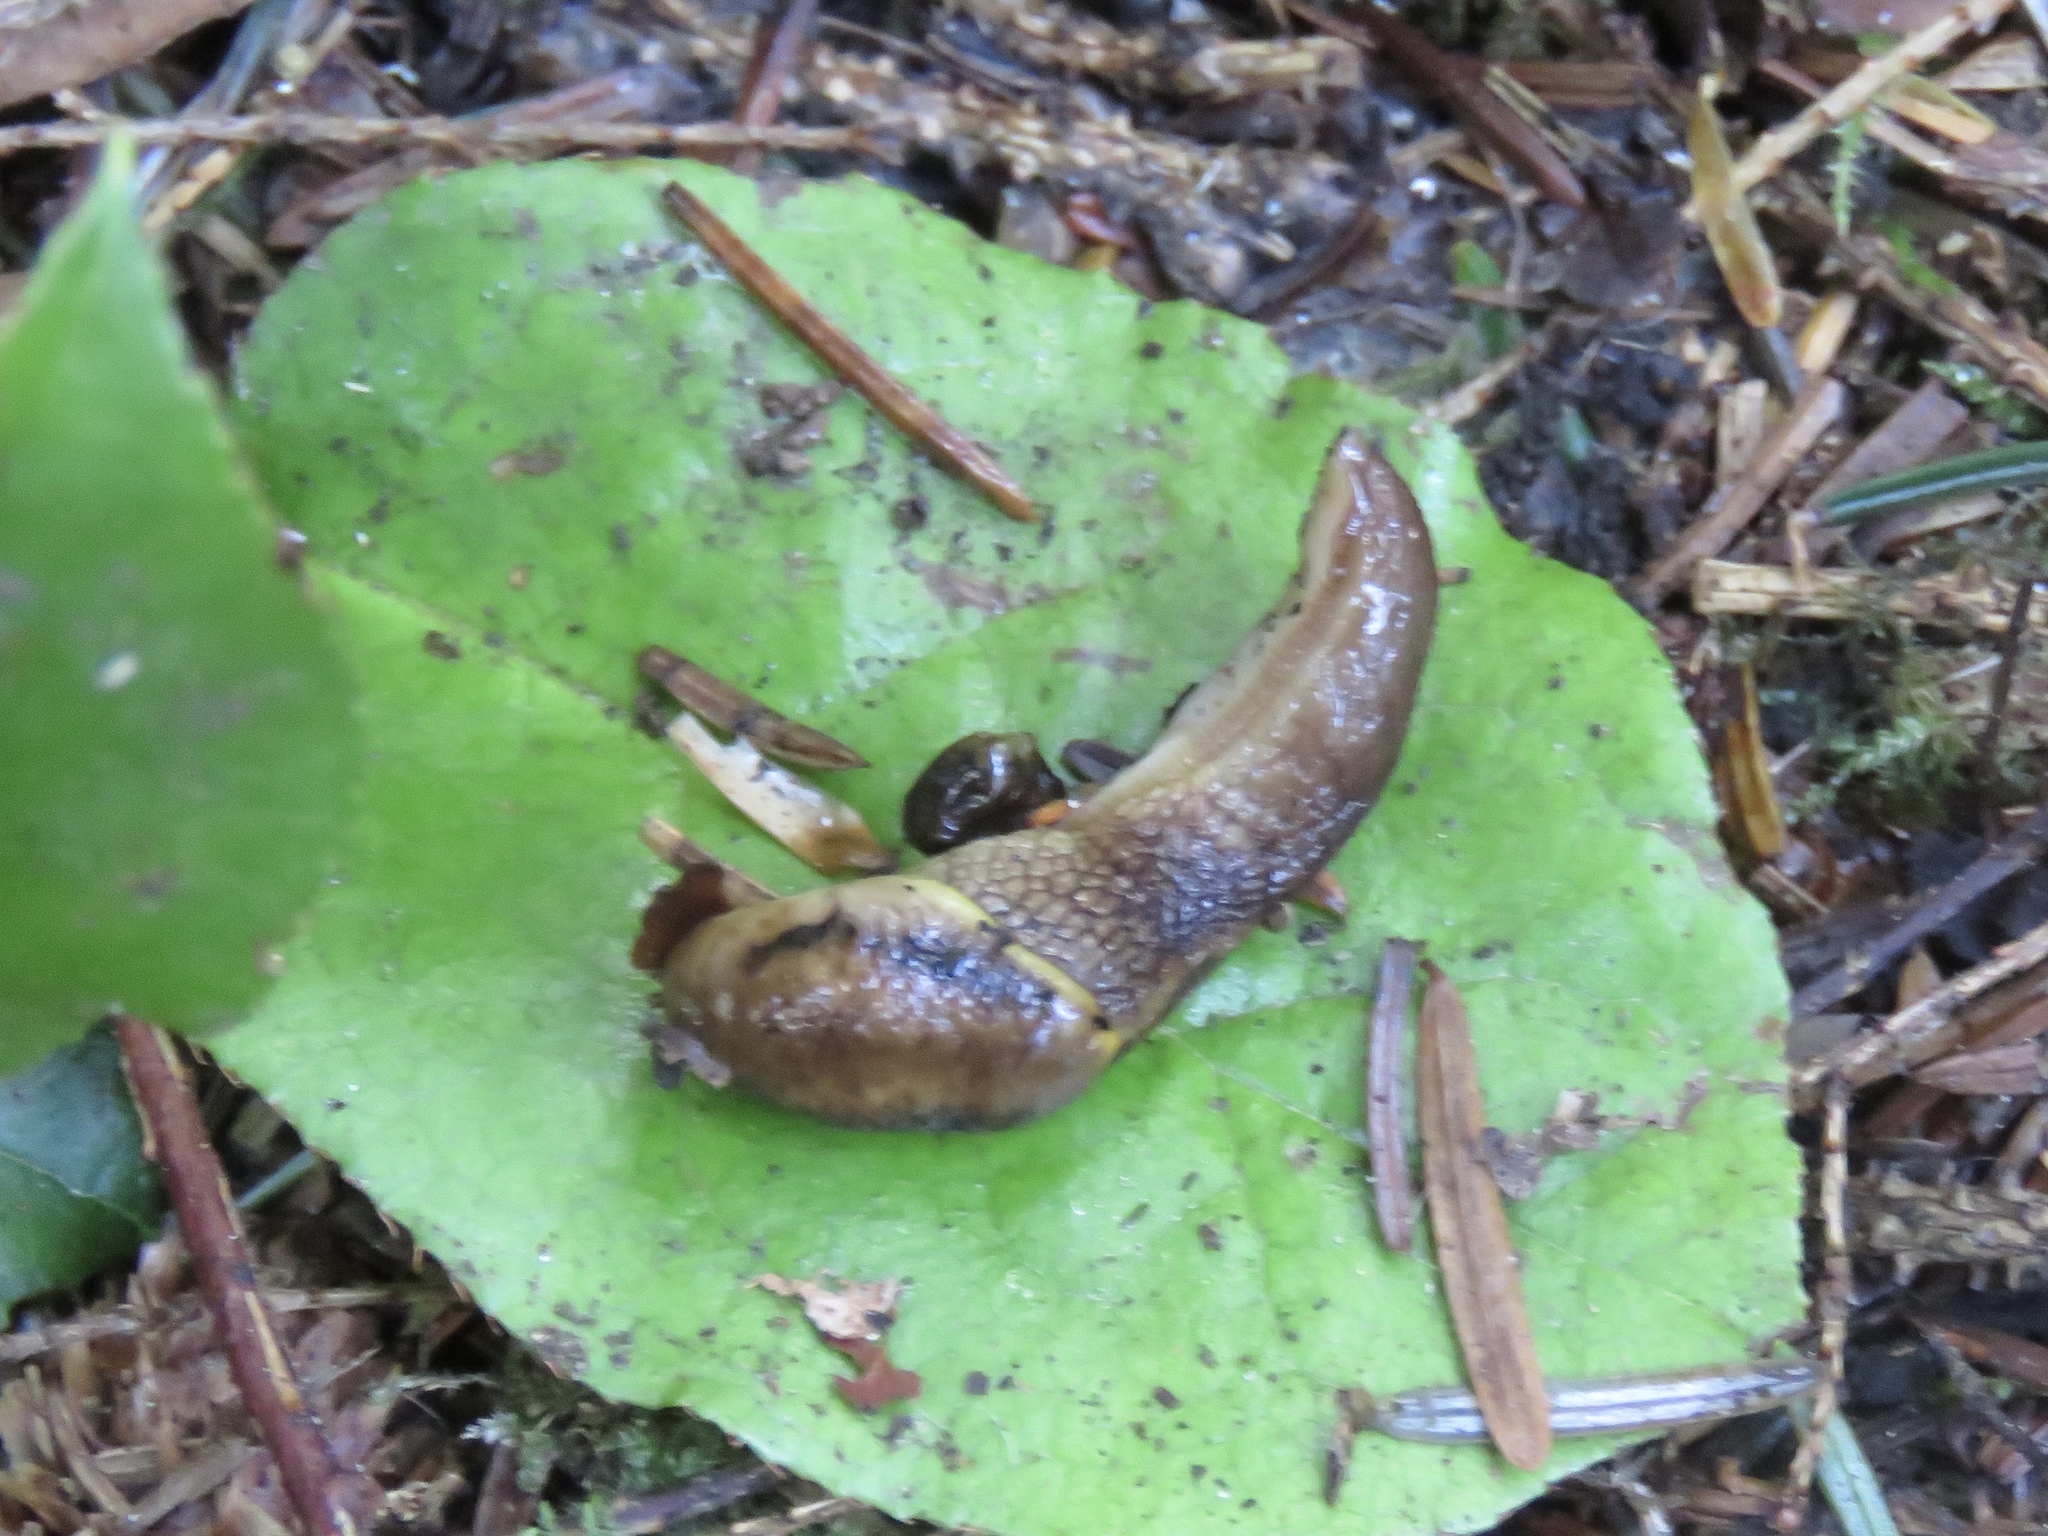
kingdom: Animalia
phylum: Mollusca
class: Gastropoda
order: Stylommatophora
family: Ariolimacidae
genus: Prophysaon
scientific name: Prophysaon foliolatum
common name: Yellow-bordered taildropper
